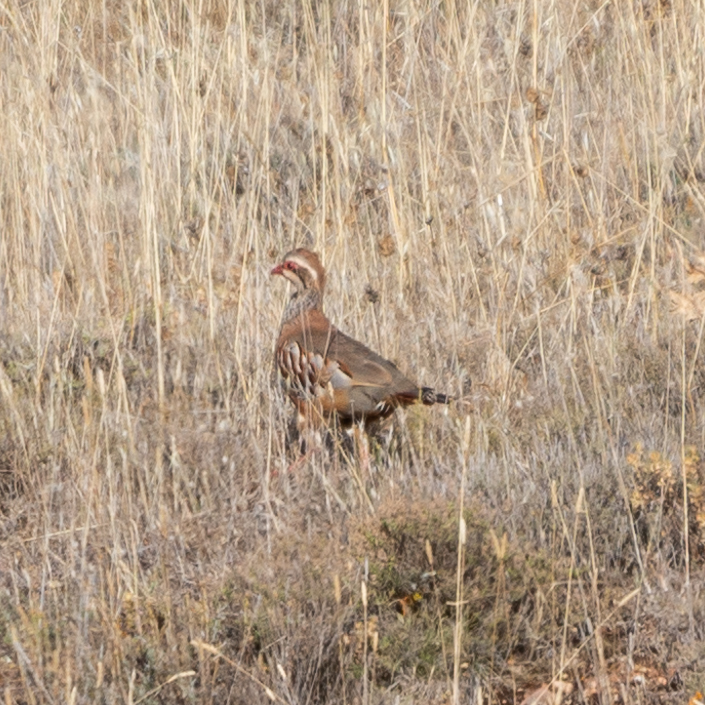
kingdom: Animalia
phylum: Chordata
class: Aves
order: Galliformes
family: Phasianidae
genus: Alectoris
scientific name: Alectoris rufa
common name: Red-legged partridge
